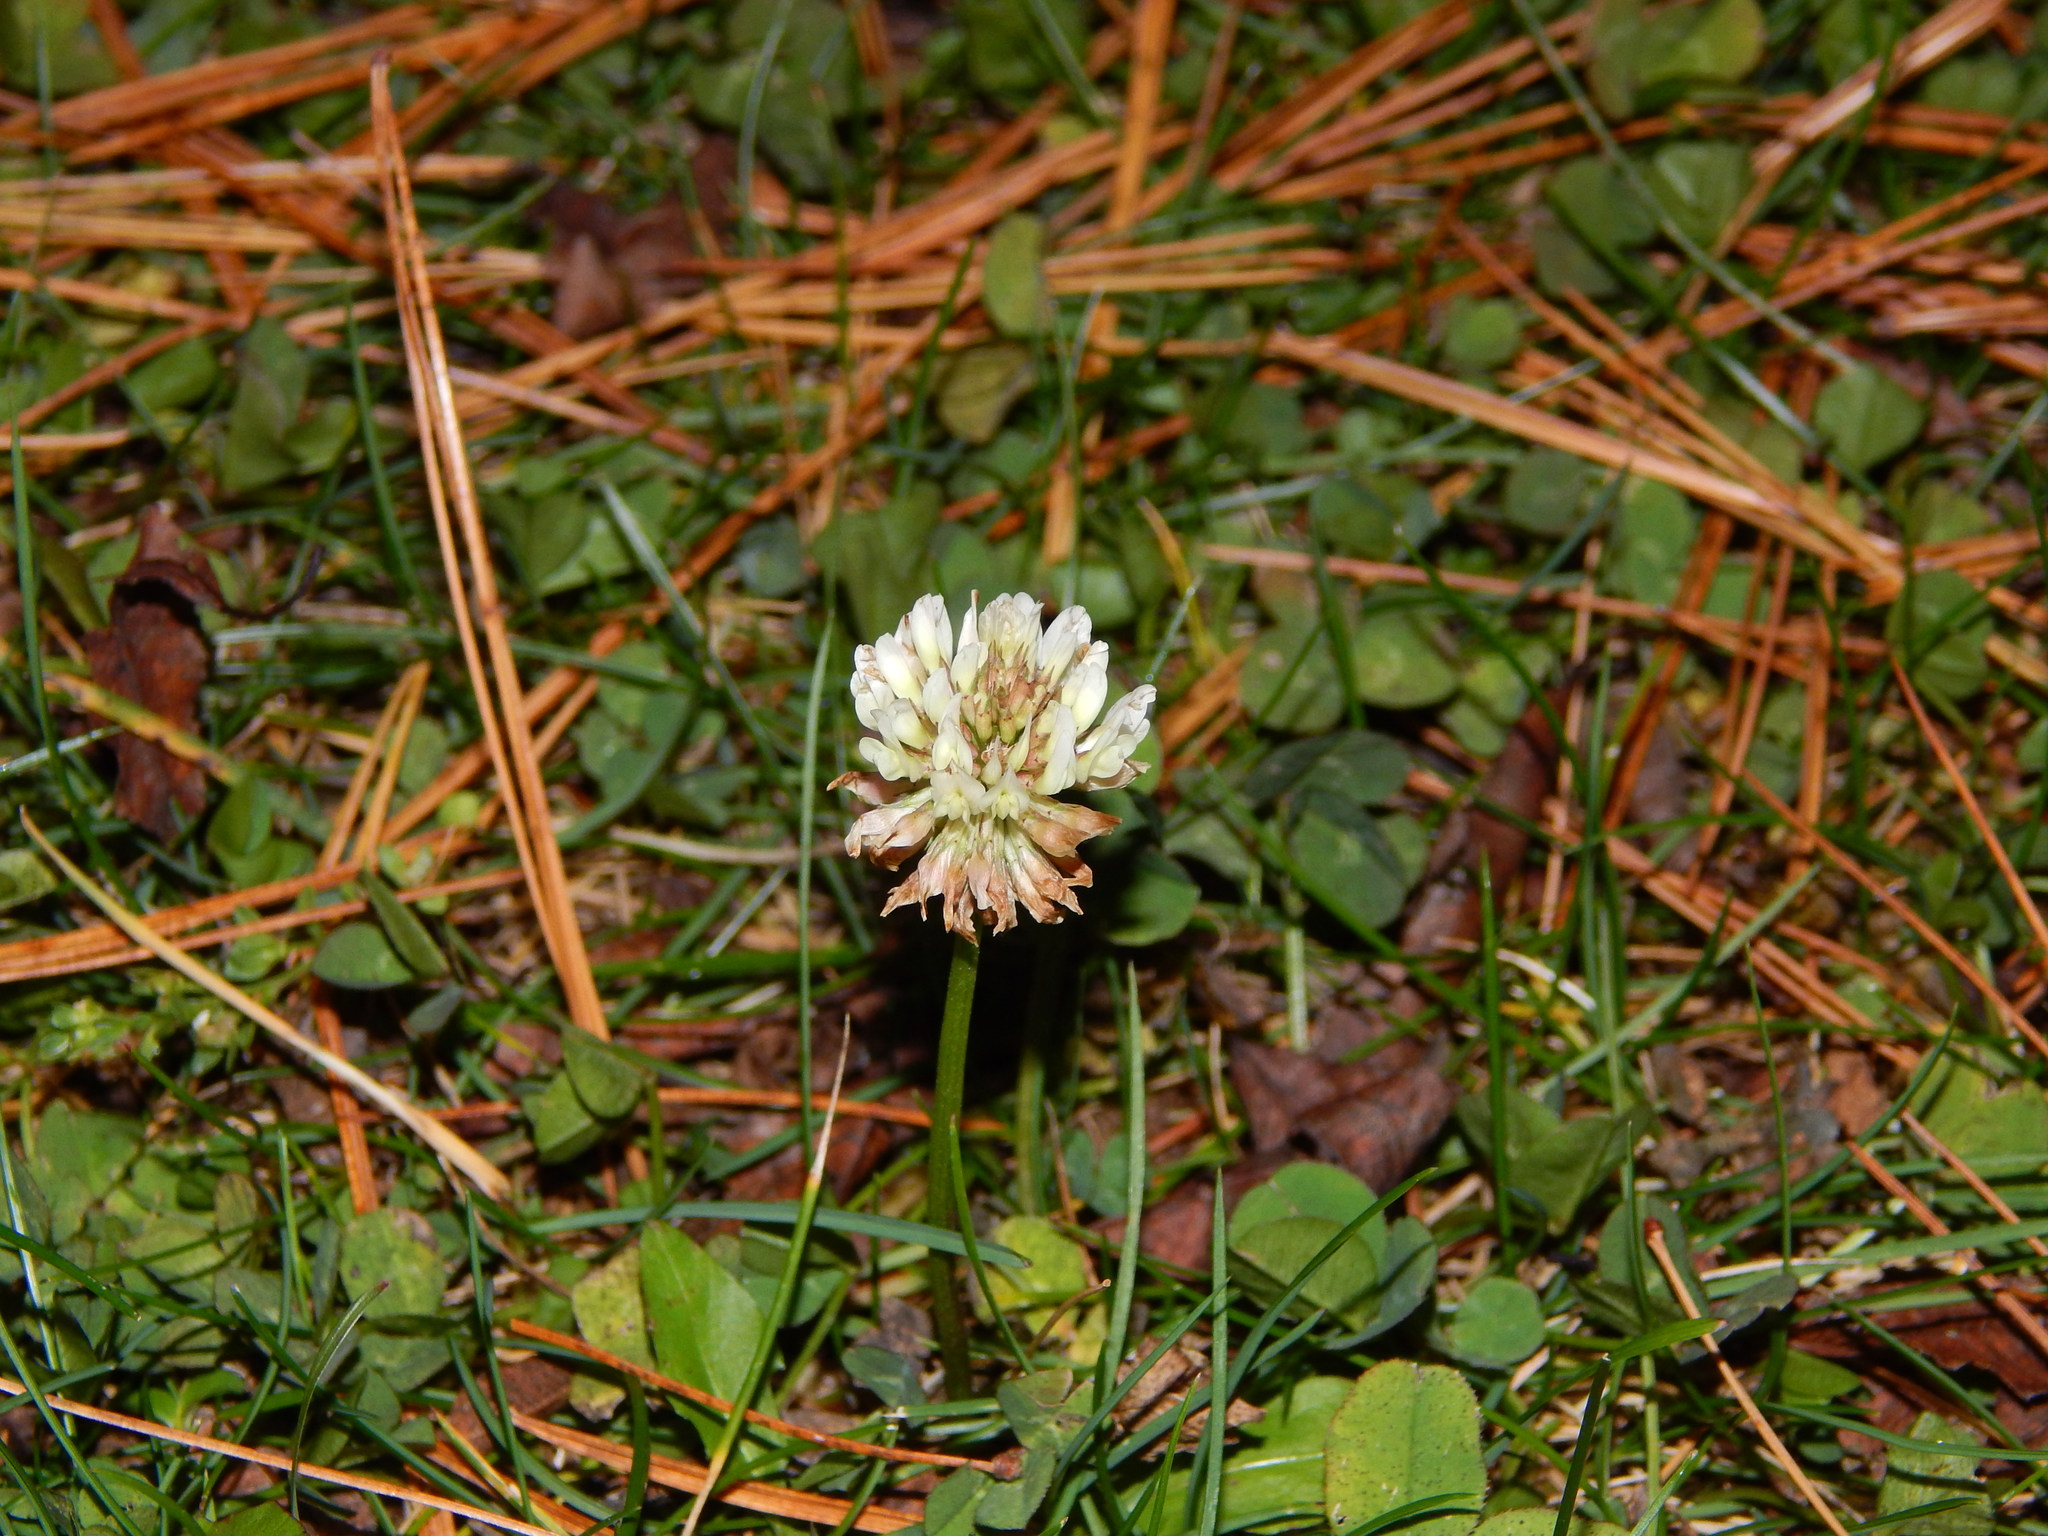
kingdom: Plantae
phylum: Tracheophyta
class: Magnoliopsida
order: Fabales
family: Fabaceae
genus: Trifolium
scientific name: Trifolium repens
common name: White clover
